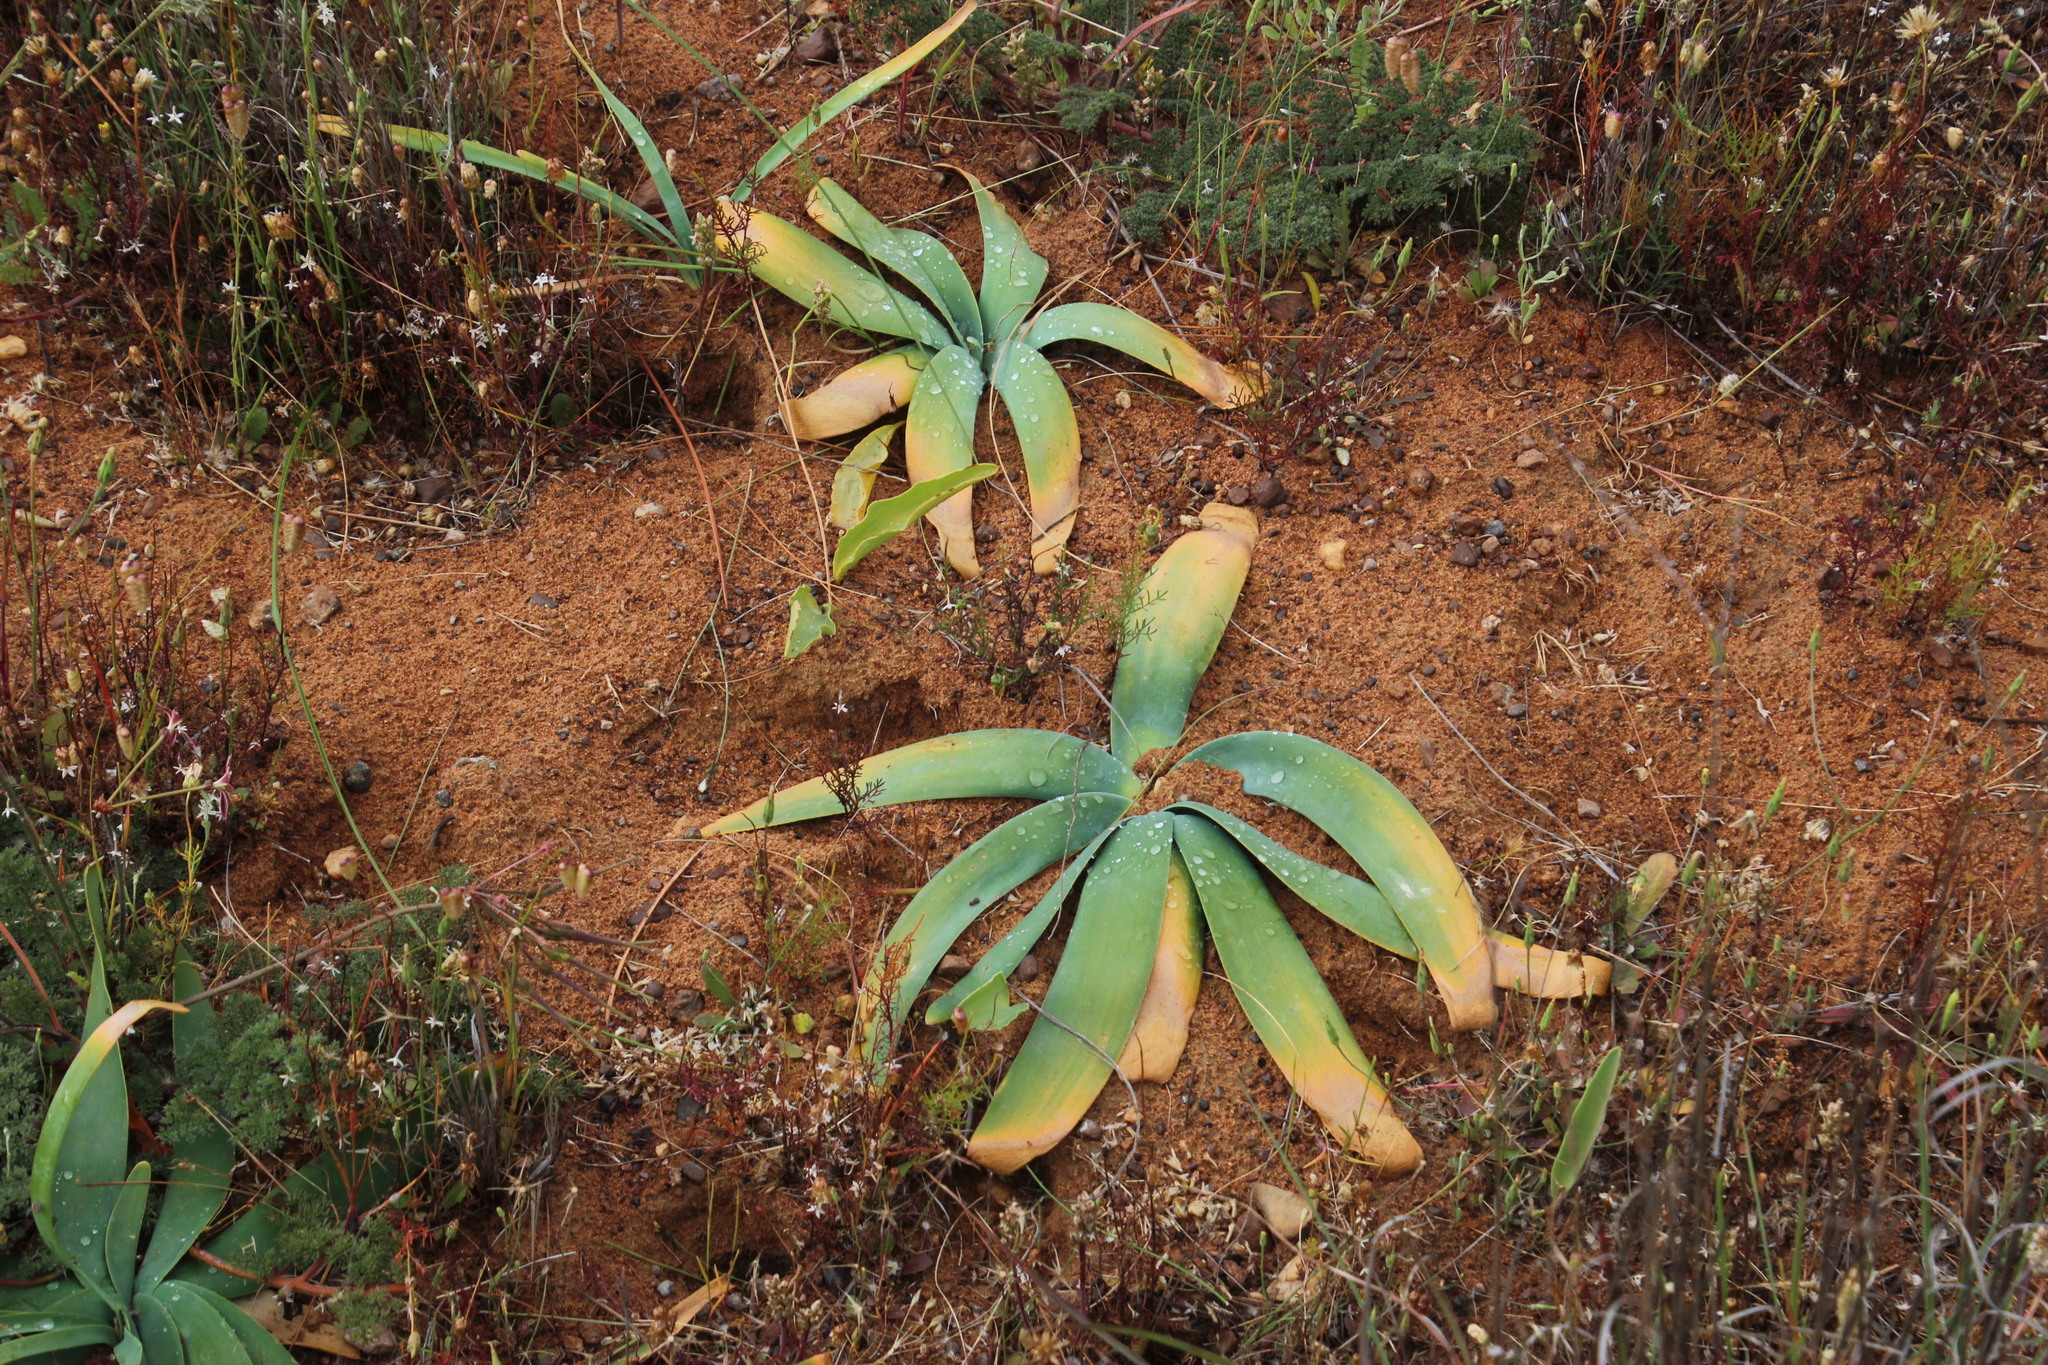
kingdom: Plantae
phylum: Tracheophyta
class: Liliopsida
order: Asparagales
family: Amaryllidaceae
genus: Ammocharis
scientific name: Ammocharis longifolia
